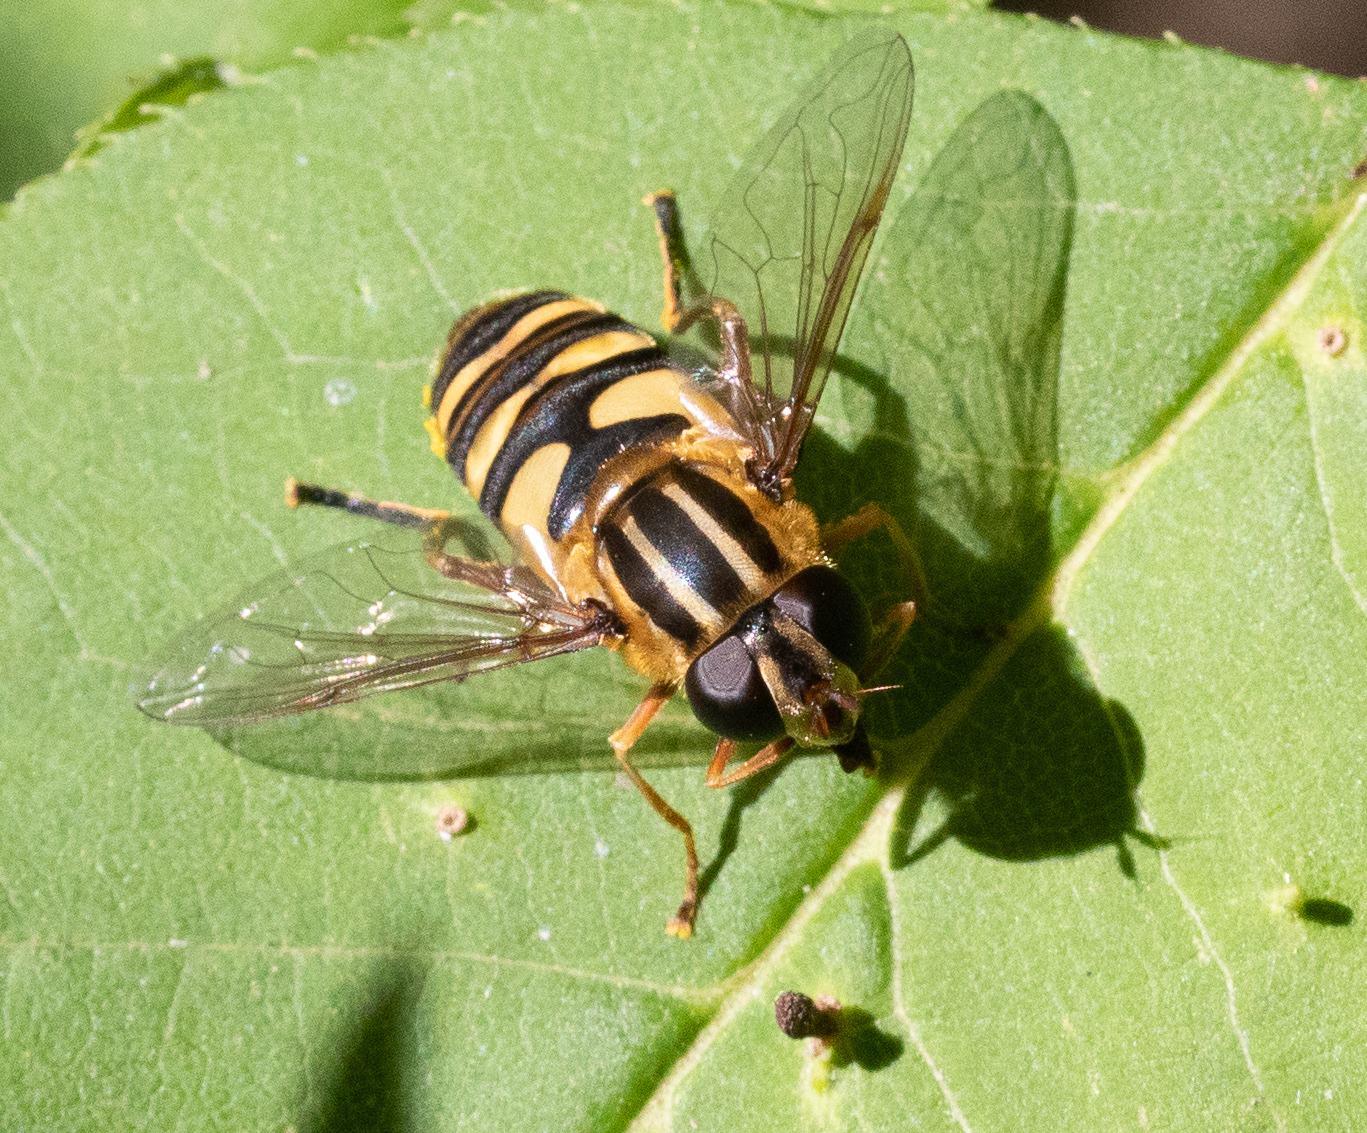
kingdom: Animalia
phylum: Arthropoda
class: Insecta
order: Diptera
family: Syrphidae
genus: Helophilus
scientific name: Helophilus fasciatus
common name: Narrow-headed marsh fly
